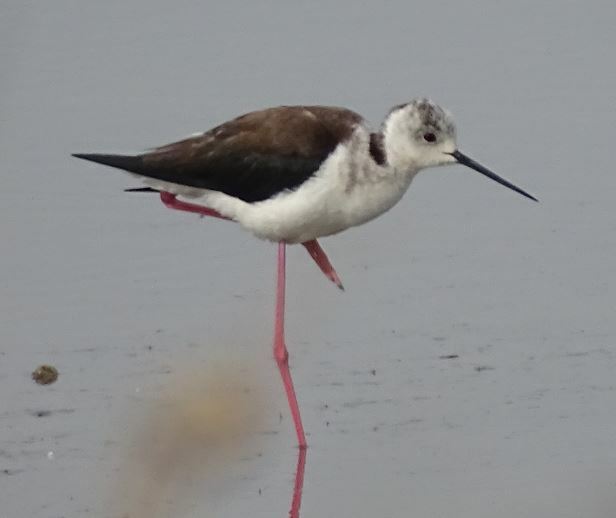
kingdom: Animalia
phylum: Chordata
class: Aves
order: Charadriiformes
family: Recurvirostridae
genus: Himantopus
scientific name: Himantopus himantopus
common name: Black-winged stilt
